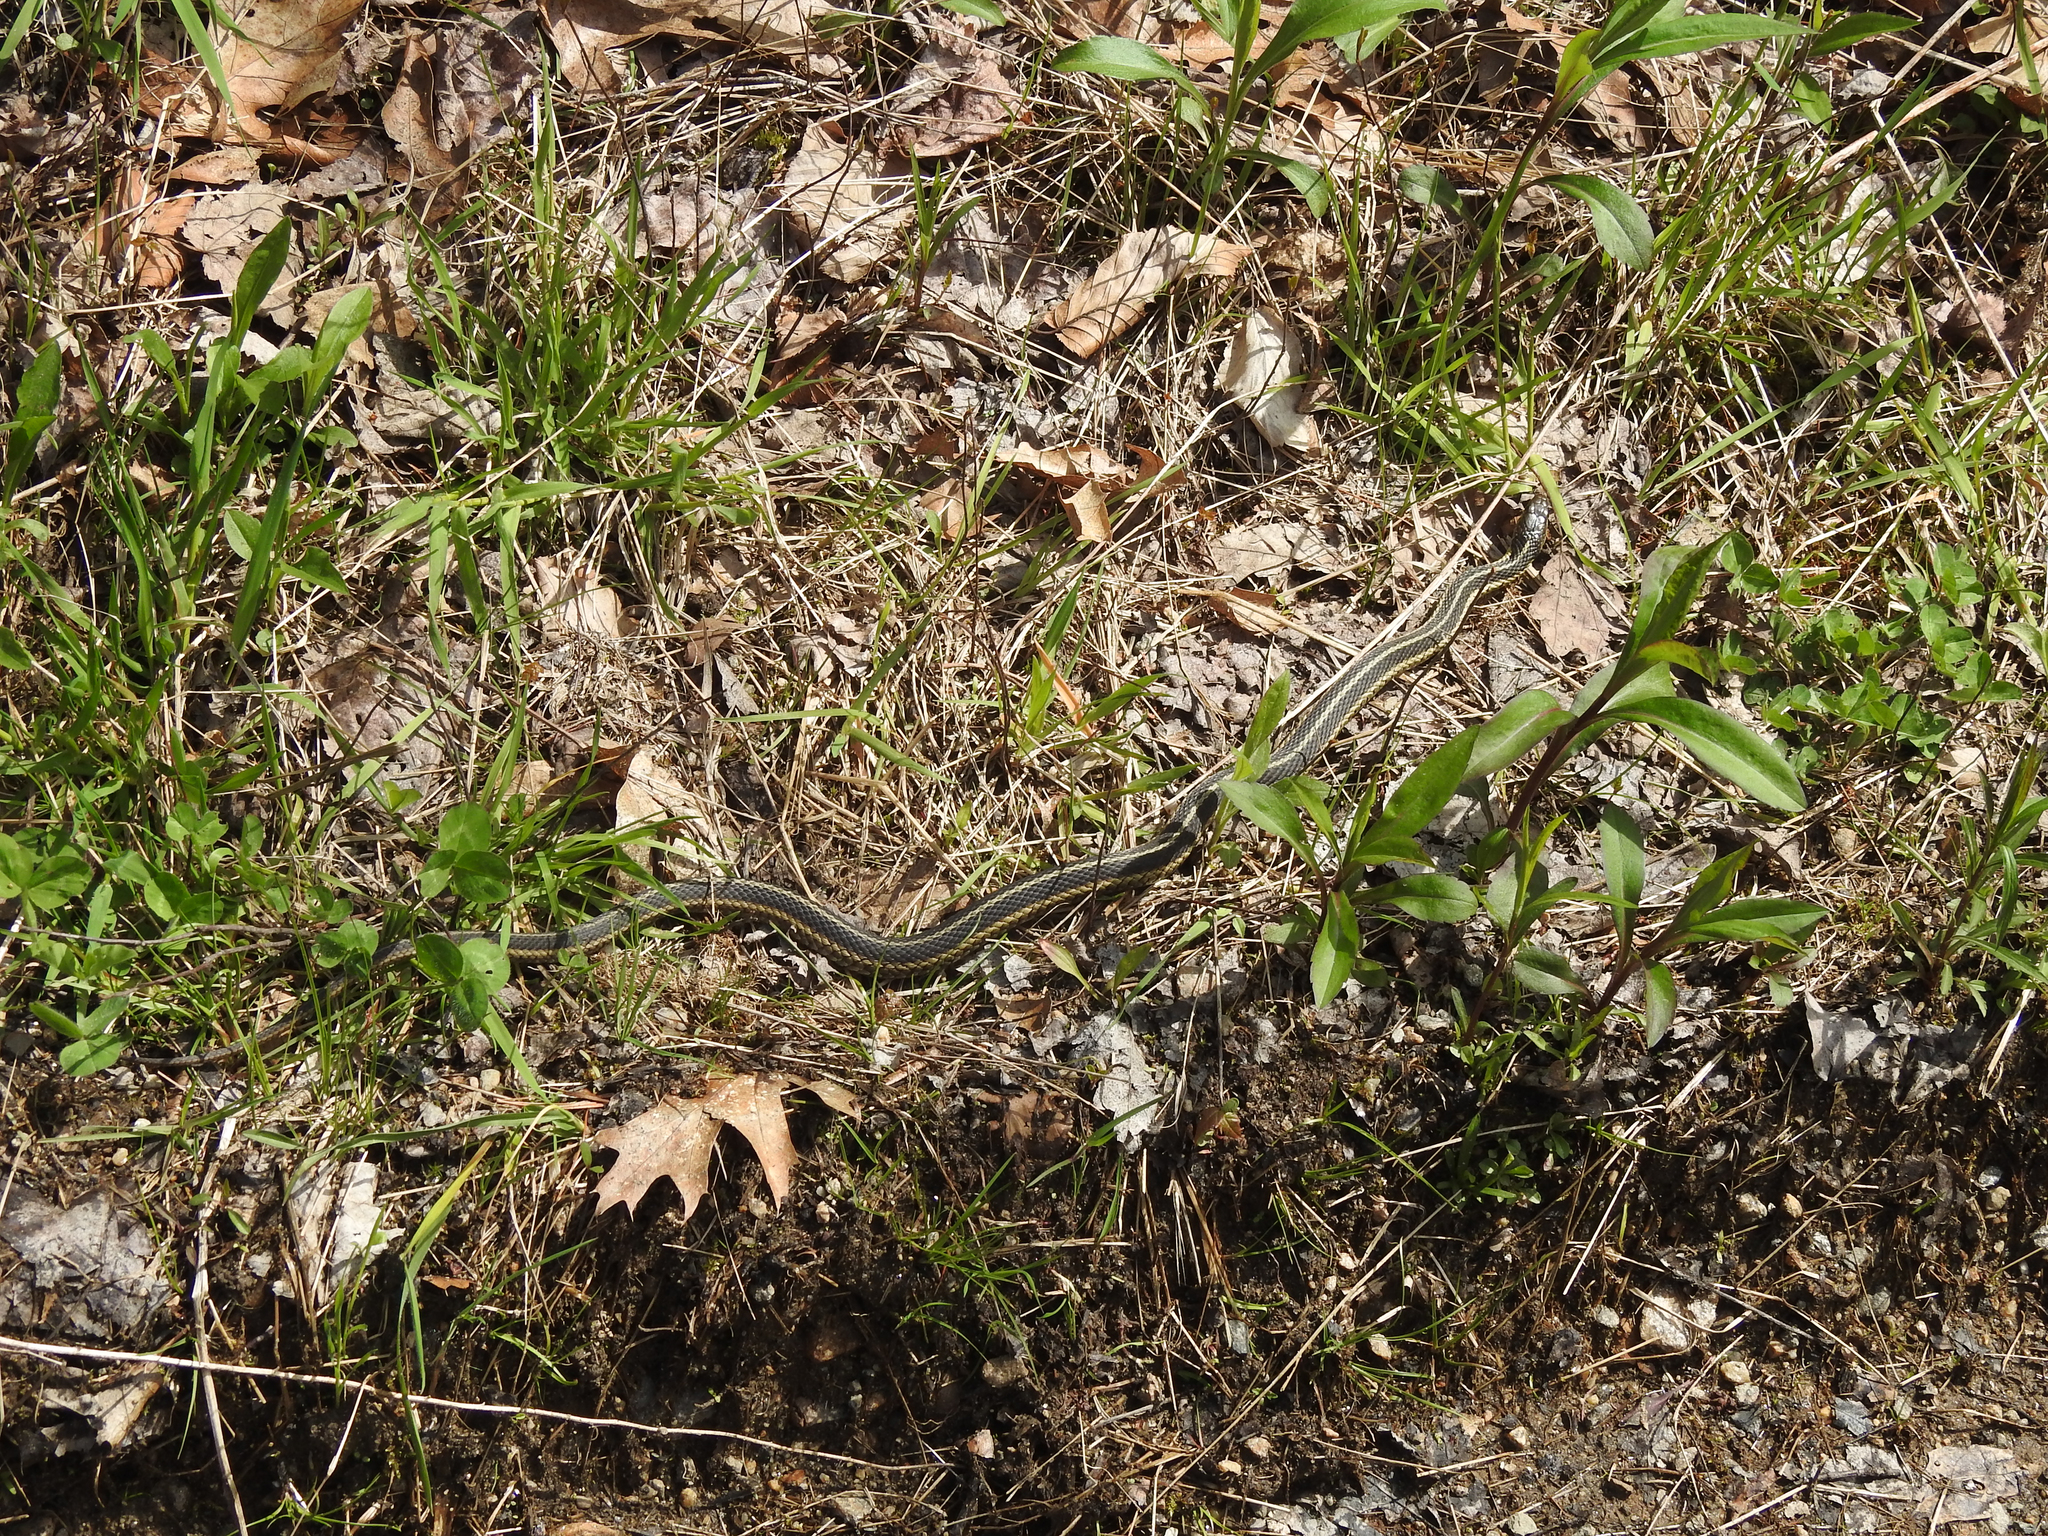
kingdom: Animalia
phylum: Chordata
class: Squamata
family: Colubridae
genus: Thamnophis
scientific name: Thamnophis sirtalis
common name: Common garter snake
